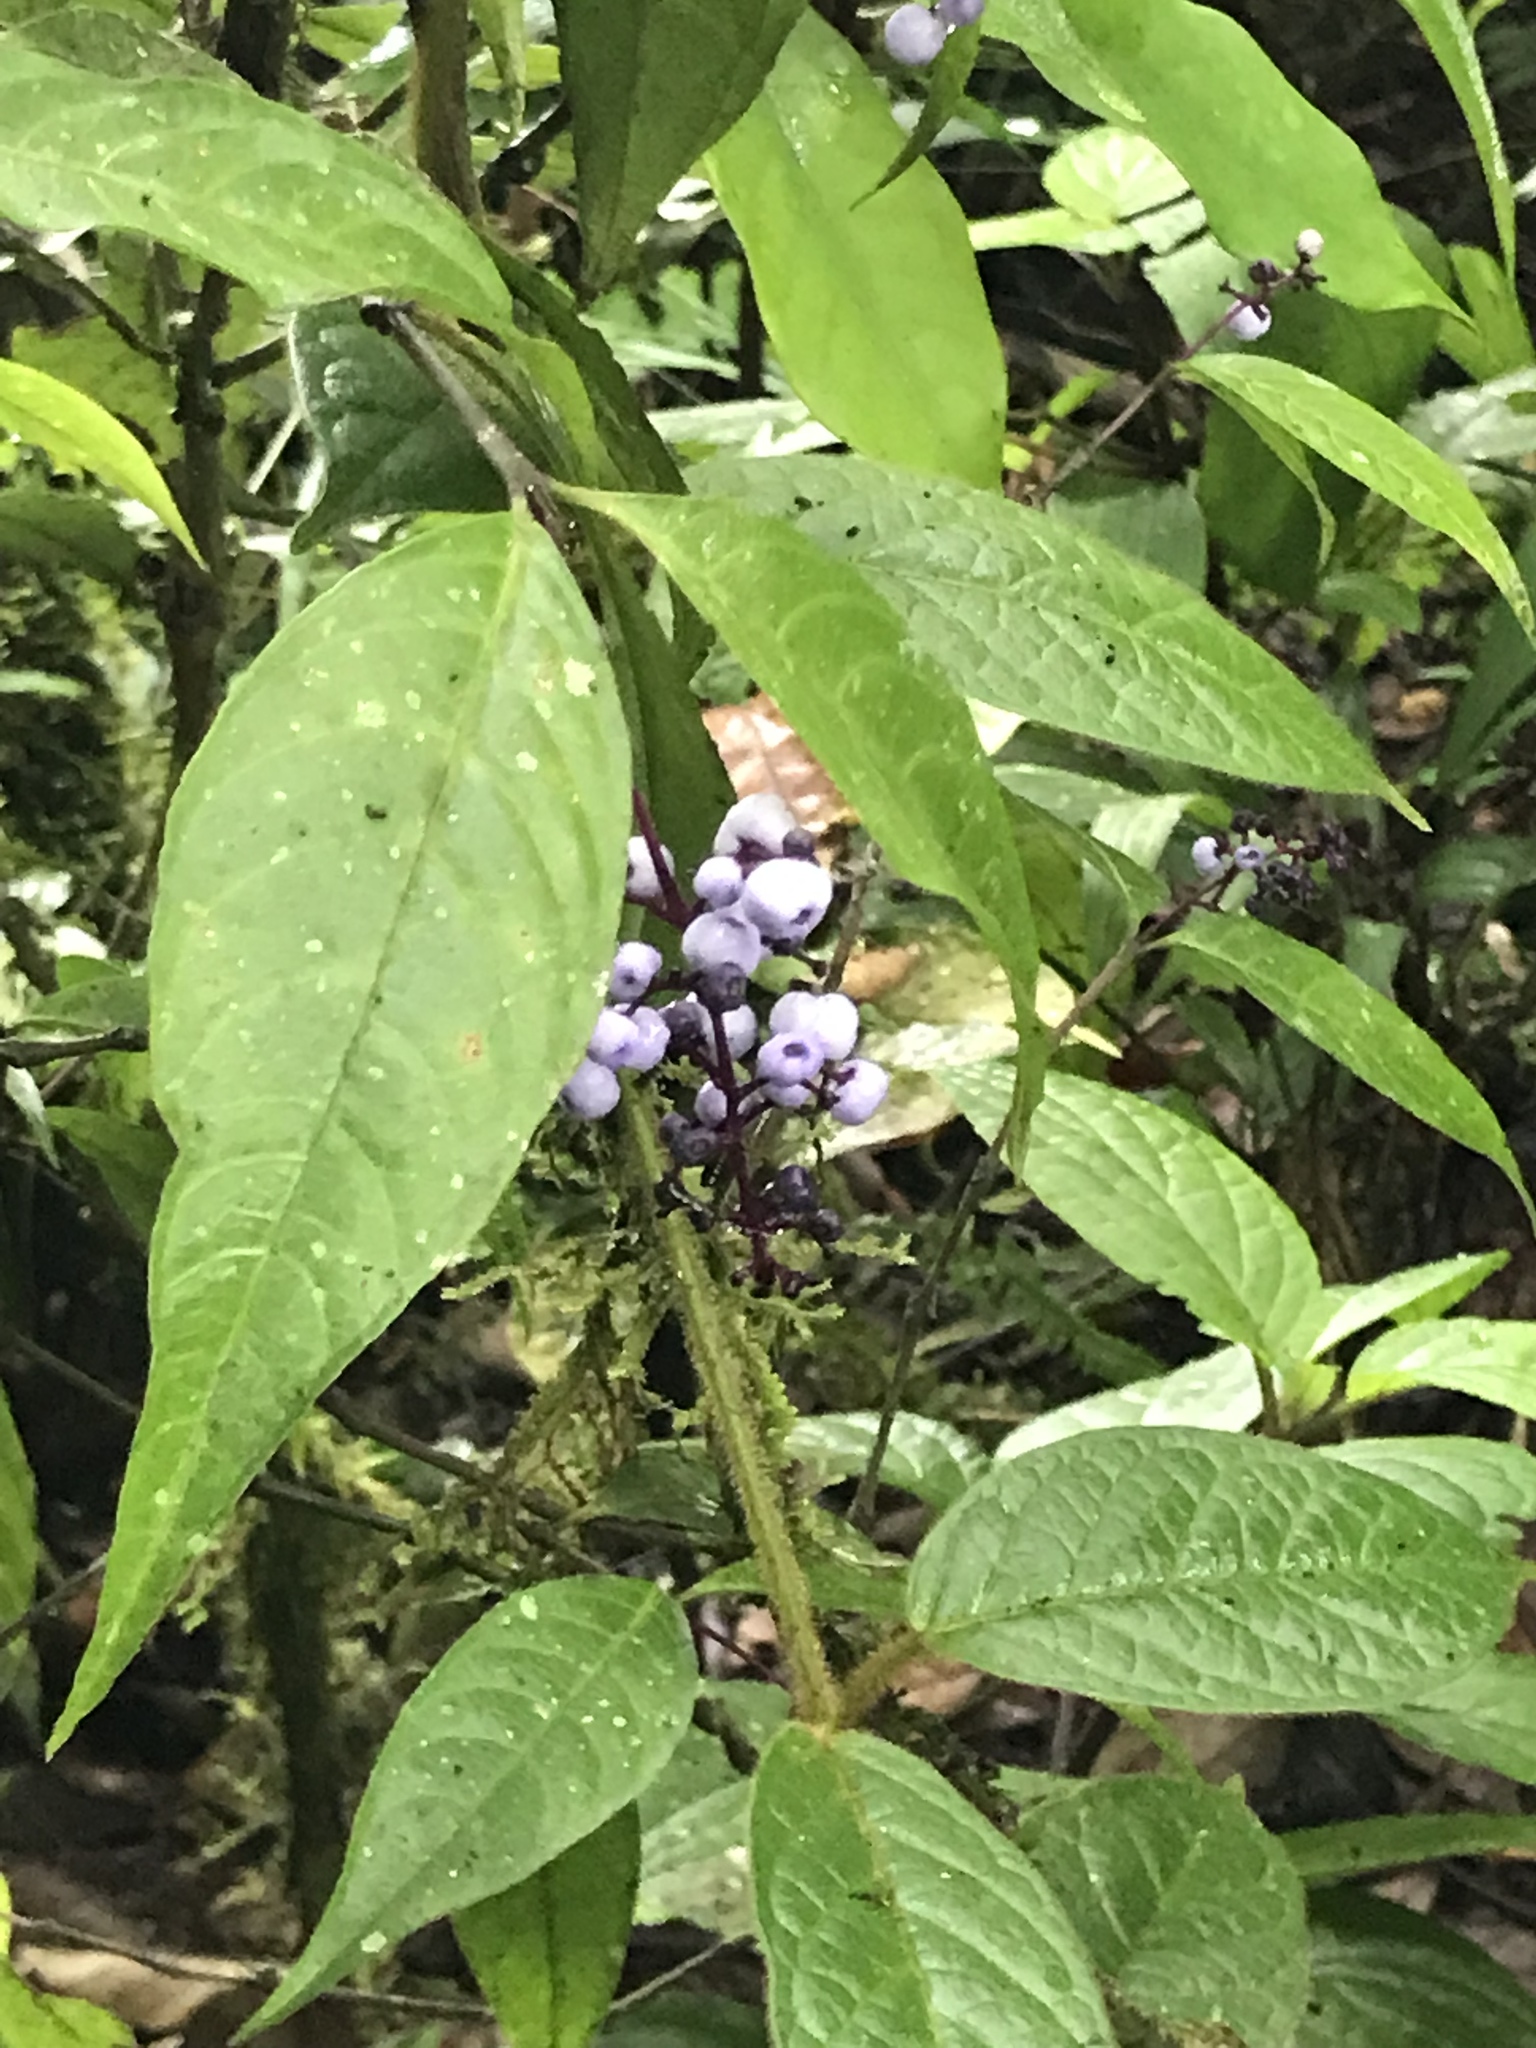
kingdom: Plantae
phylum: Tracheophyta
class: Magnoliopsida
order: Gentianales
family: Rubiaceae
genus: Palicourea
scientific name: Palicourea deflexa
